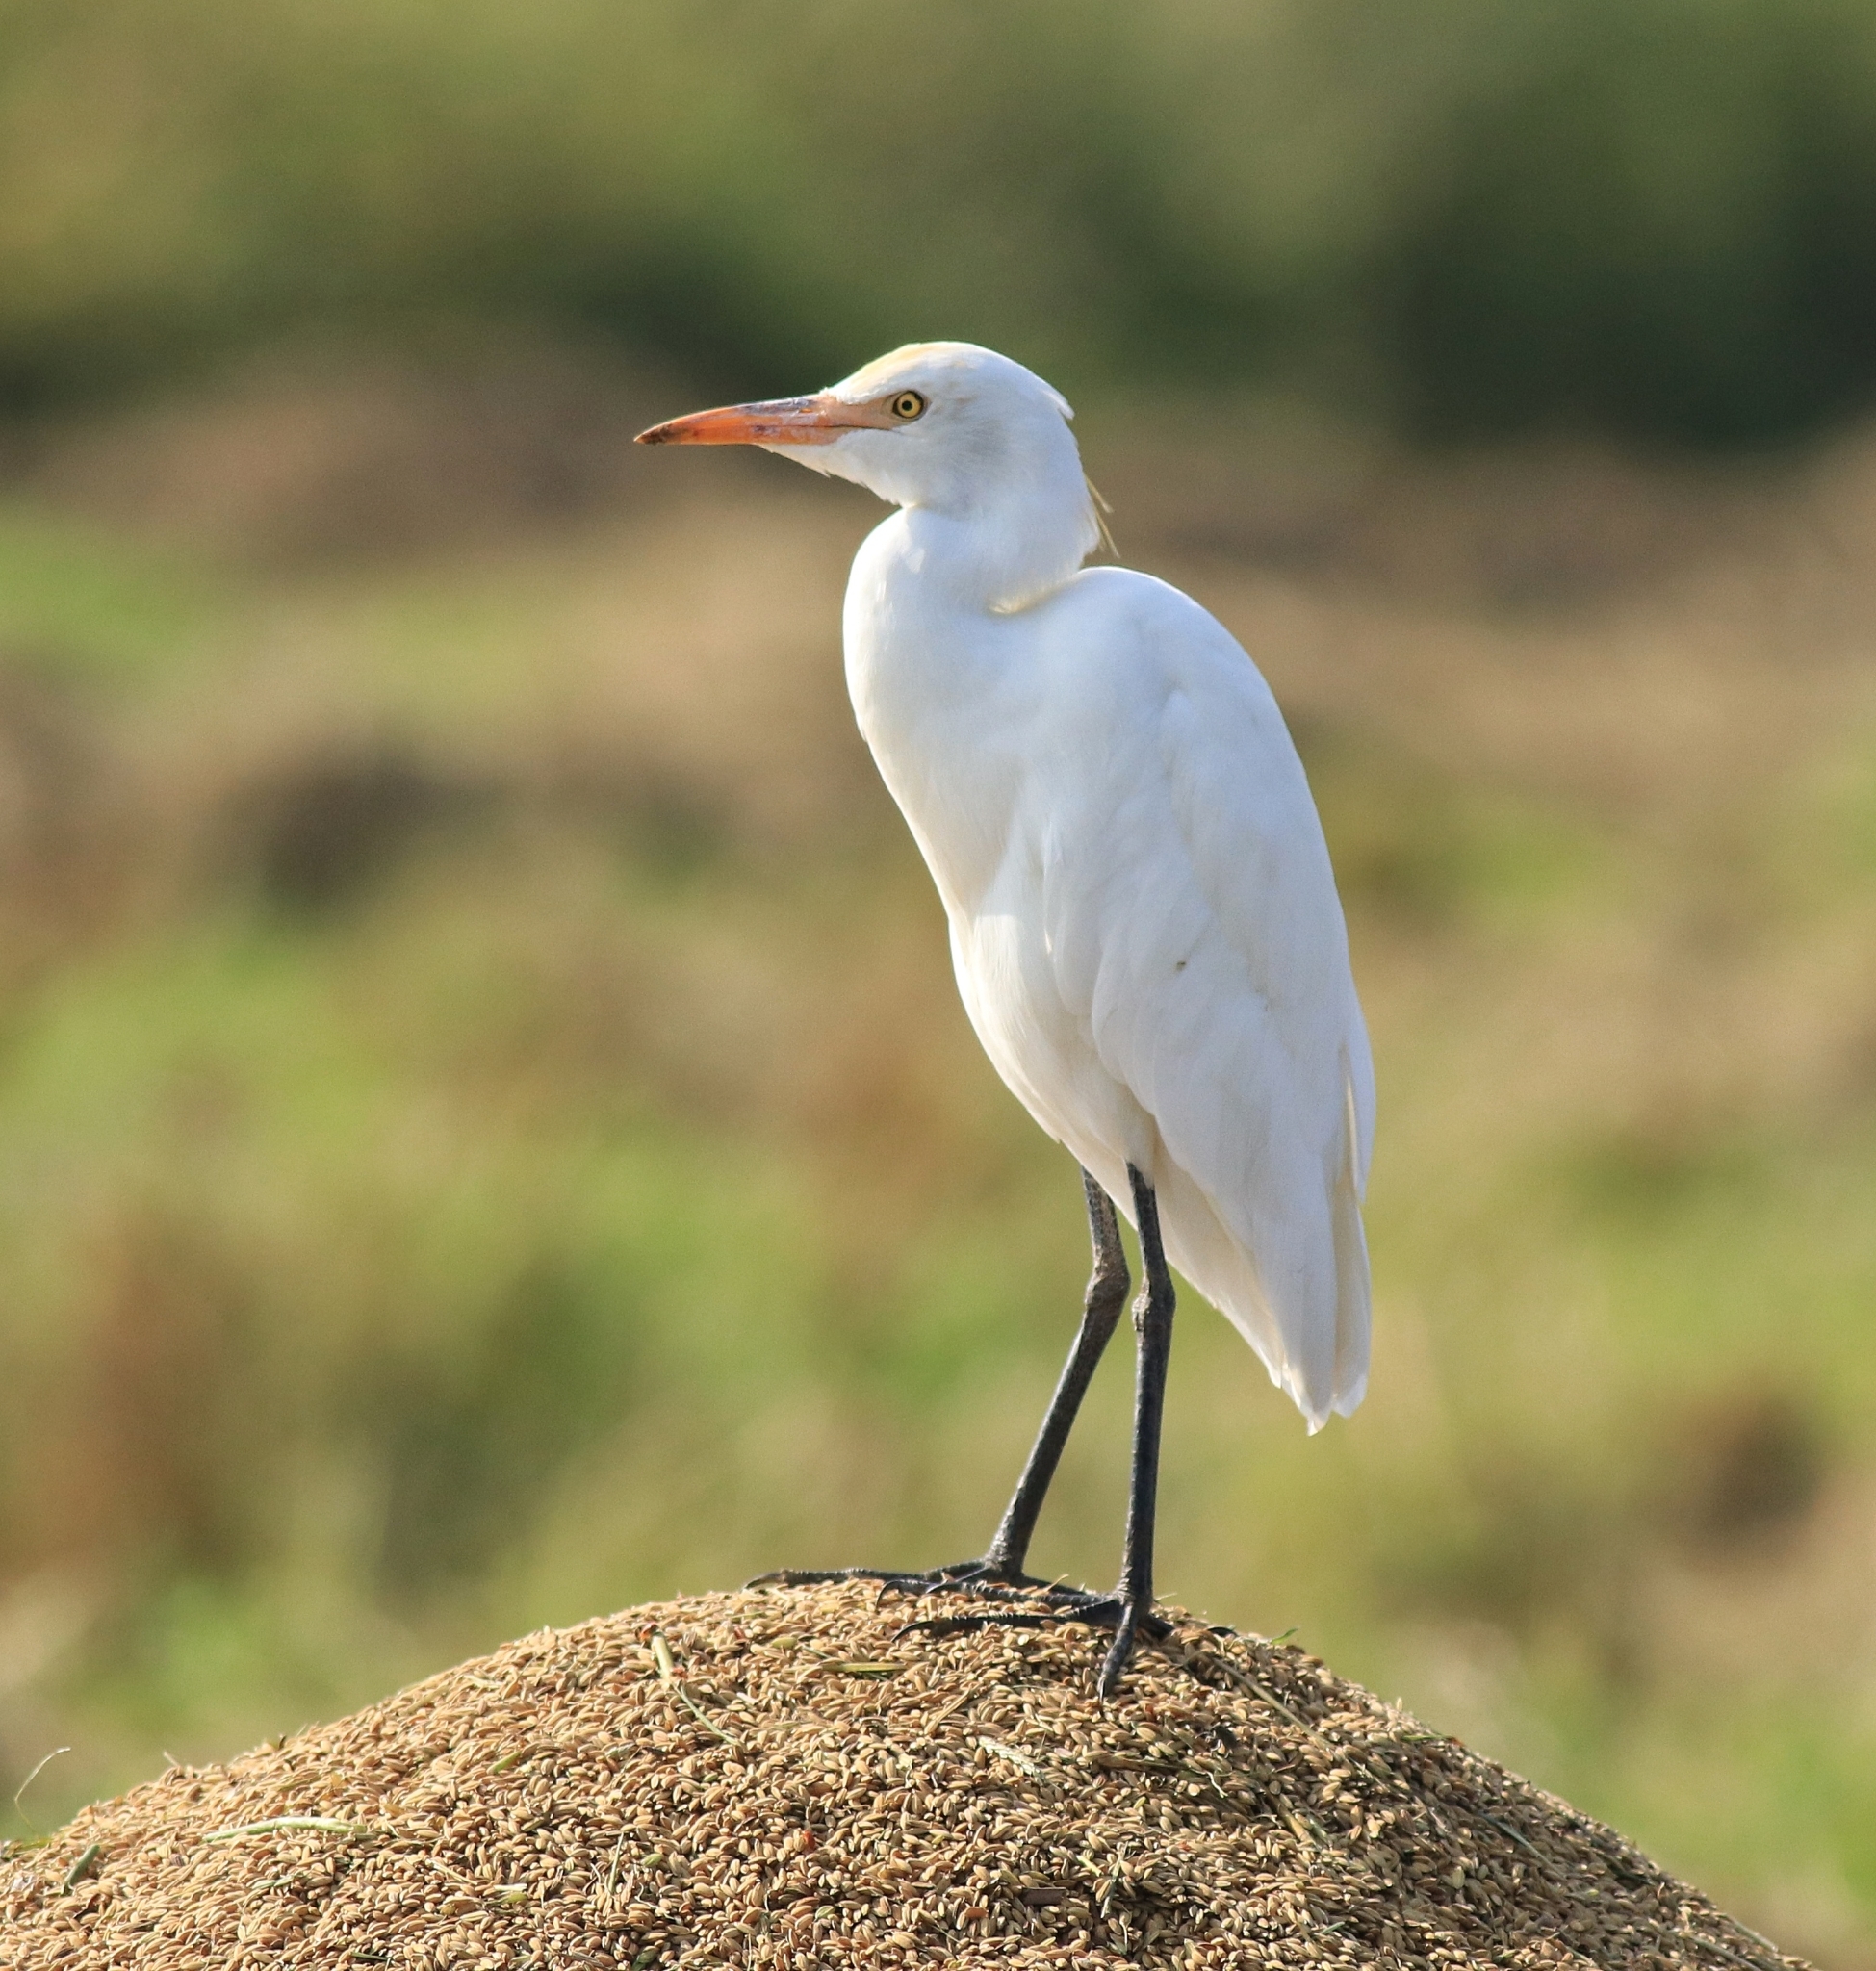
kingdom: Animalia
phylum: Chordata
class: Aves
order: Pelecaniformes
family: Ardeidae
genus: Bubulcus
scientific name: Bubulcus coromandus
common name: Eastern cattle egret
